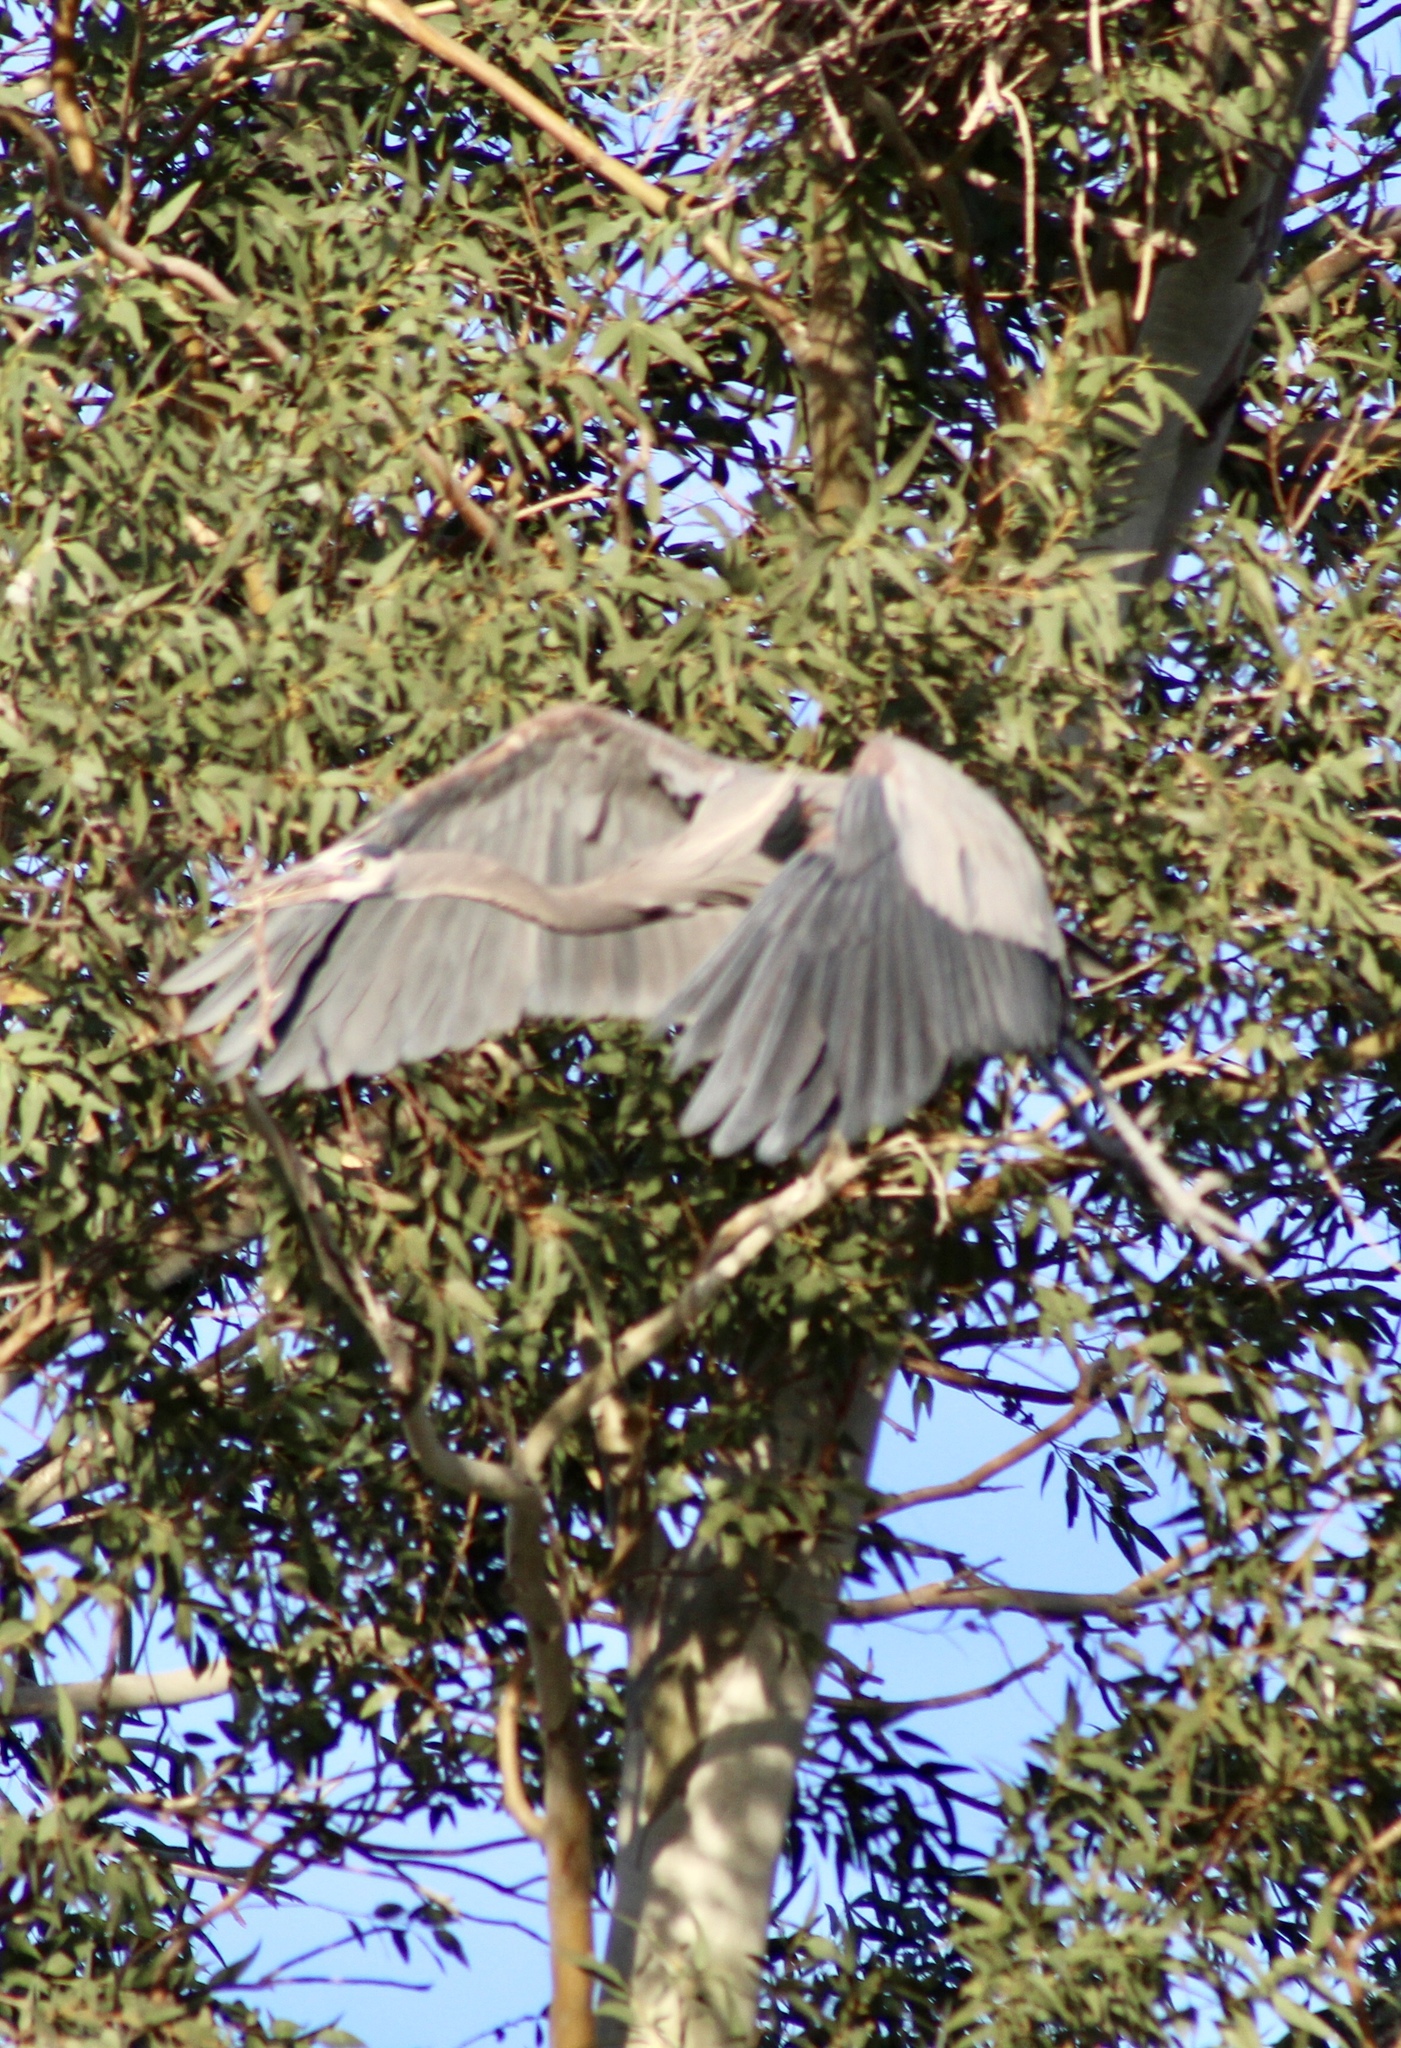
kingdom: Animalia
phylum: Chordata
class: Aves
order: Pelecaniformes
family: Ardeidae
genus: Ardea
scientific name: Ardea herodias
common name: Great blue heron
